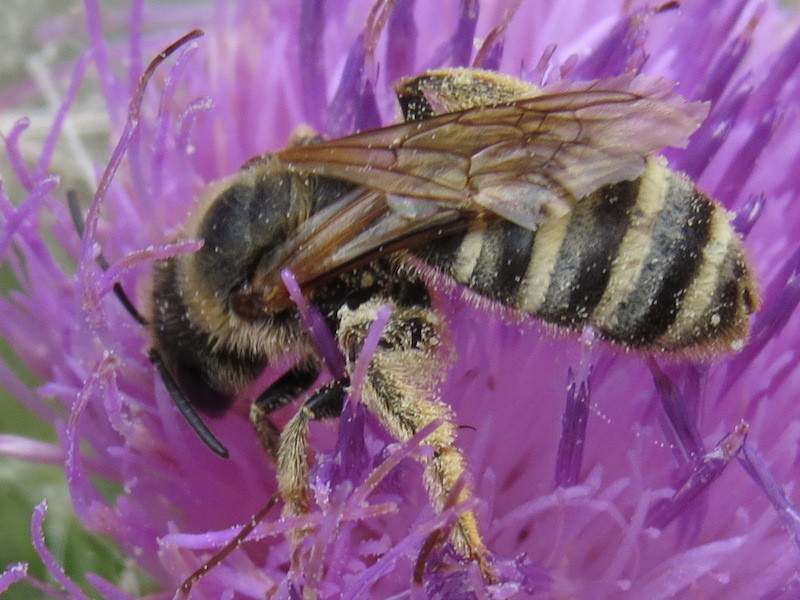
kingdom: Animalia
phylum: Arthropoda
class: Insecta
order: Hymenoptera
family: Halictidae
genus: Halictus
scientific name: Halictus scabiosae
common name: Great banded furrow bee
